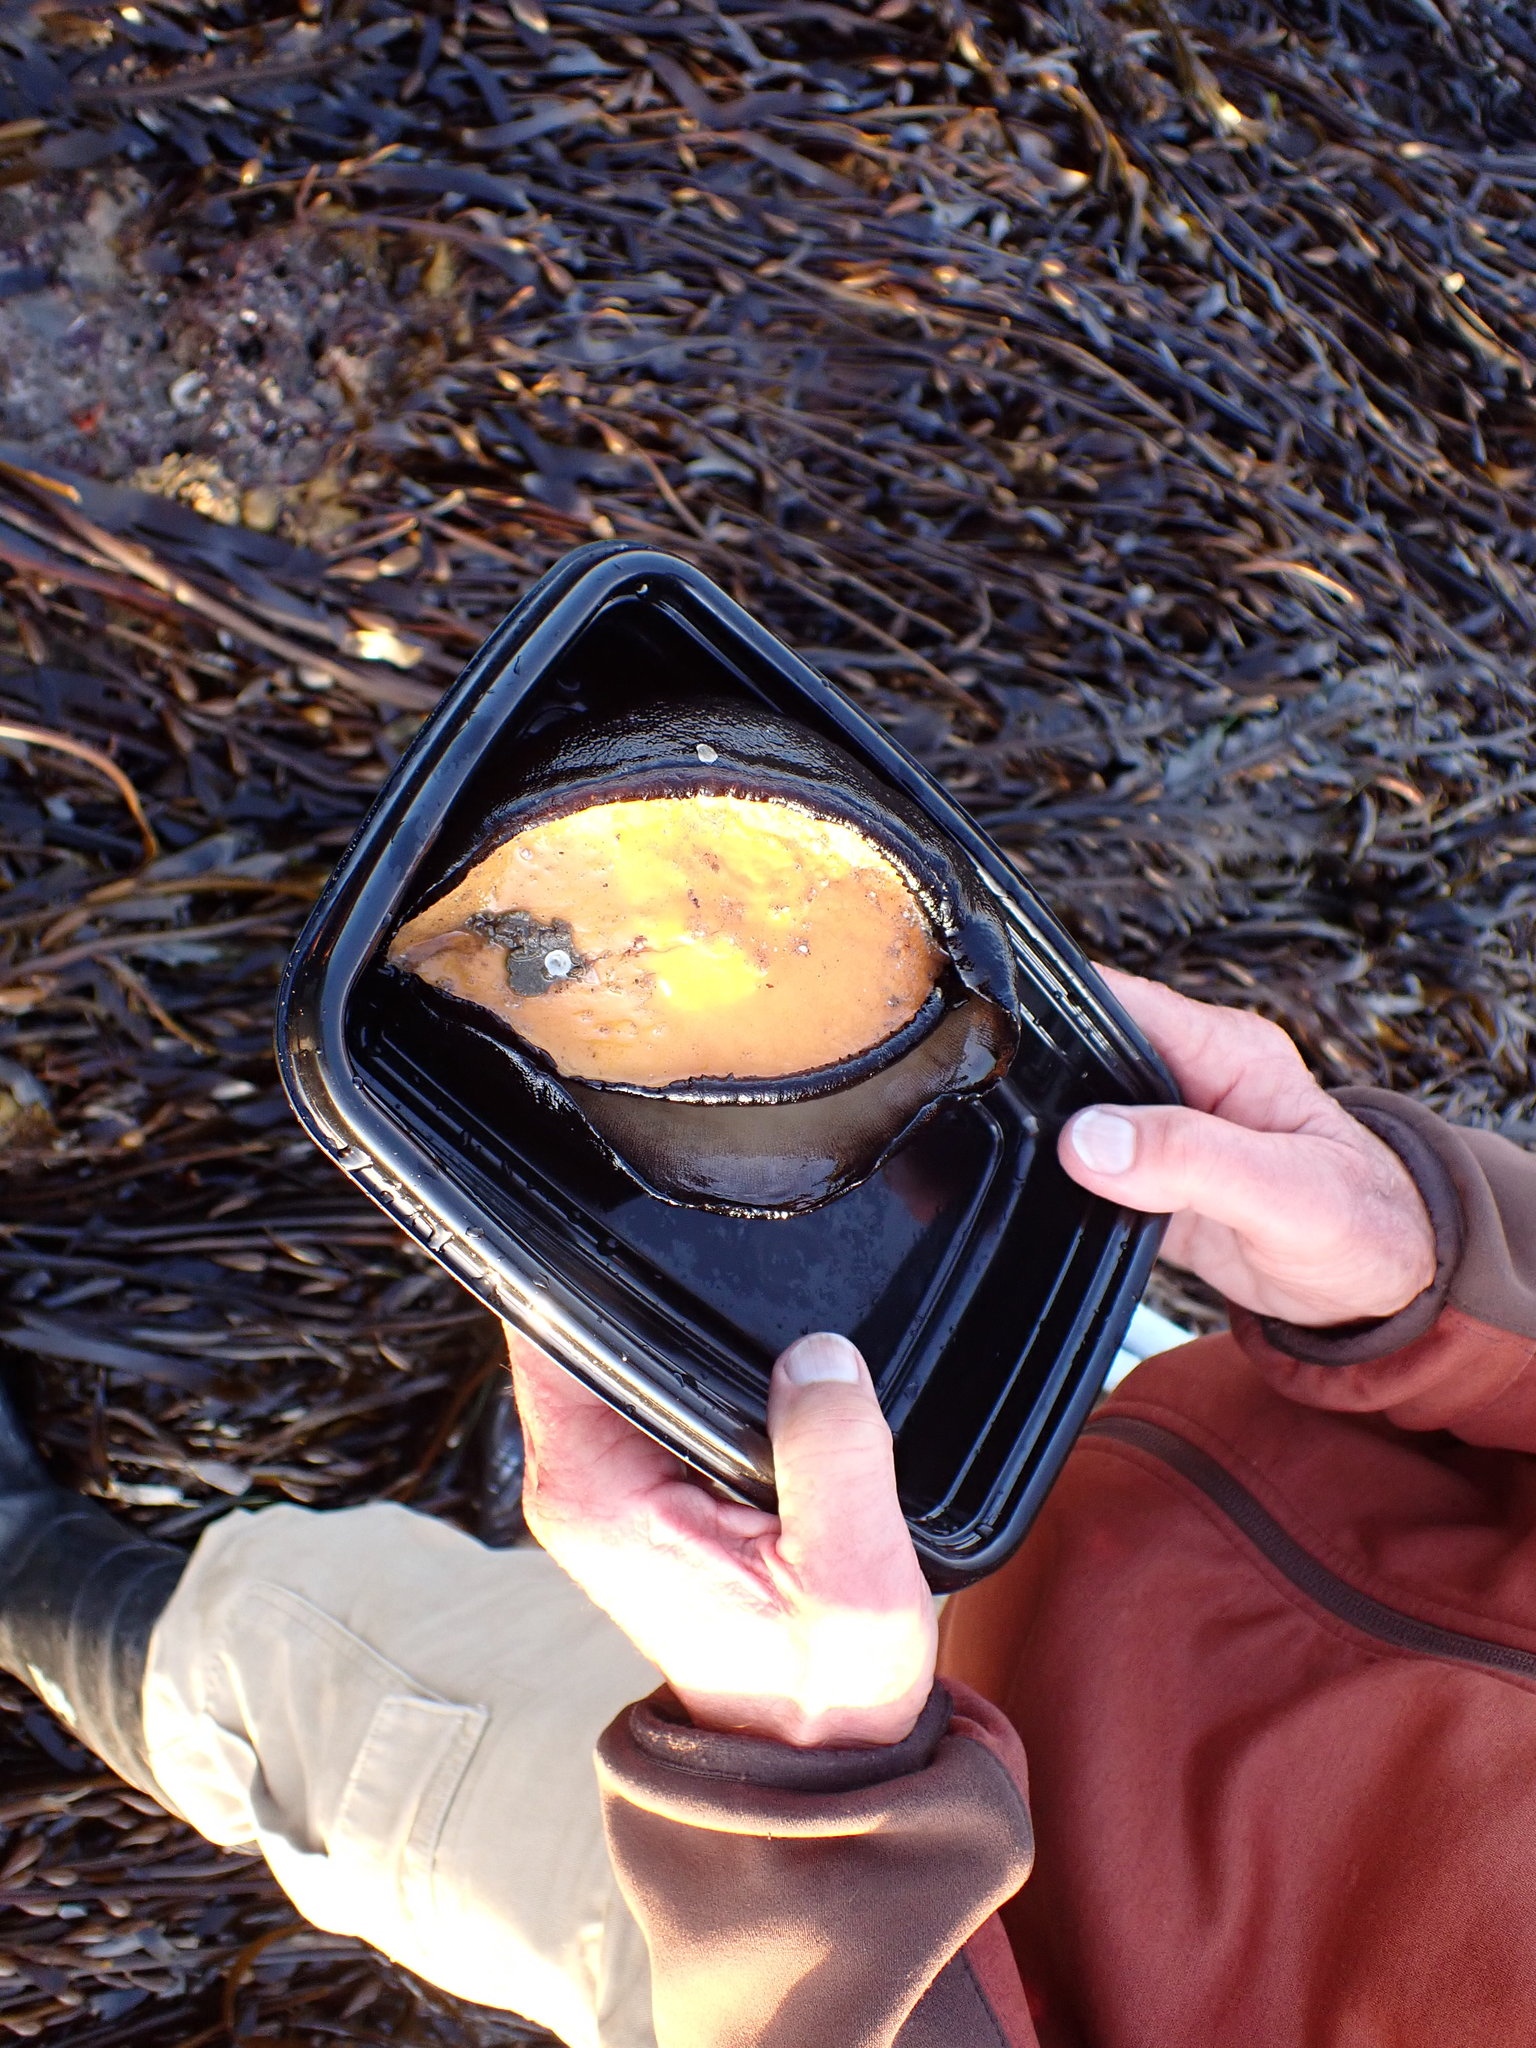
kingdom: Animalia
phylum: Mollusca
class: Gastropoda
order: Lepetellida
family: Fissurellidae
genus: Megathura
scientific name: Megathura crenulata
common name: Giant keyhole limpet
